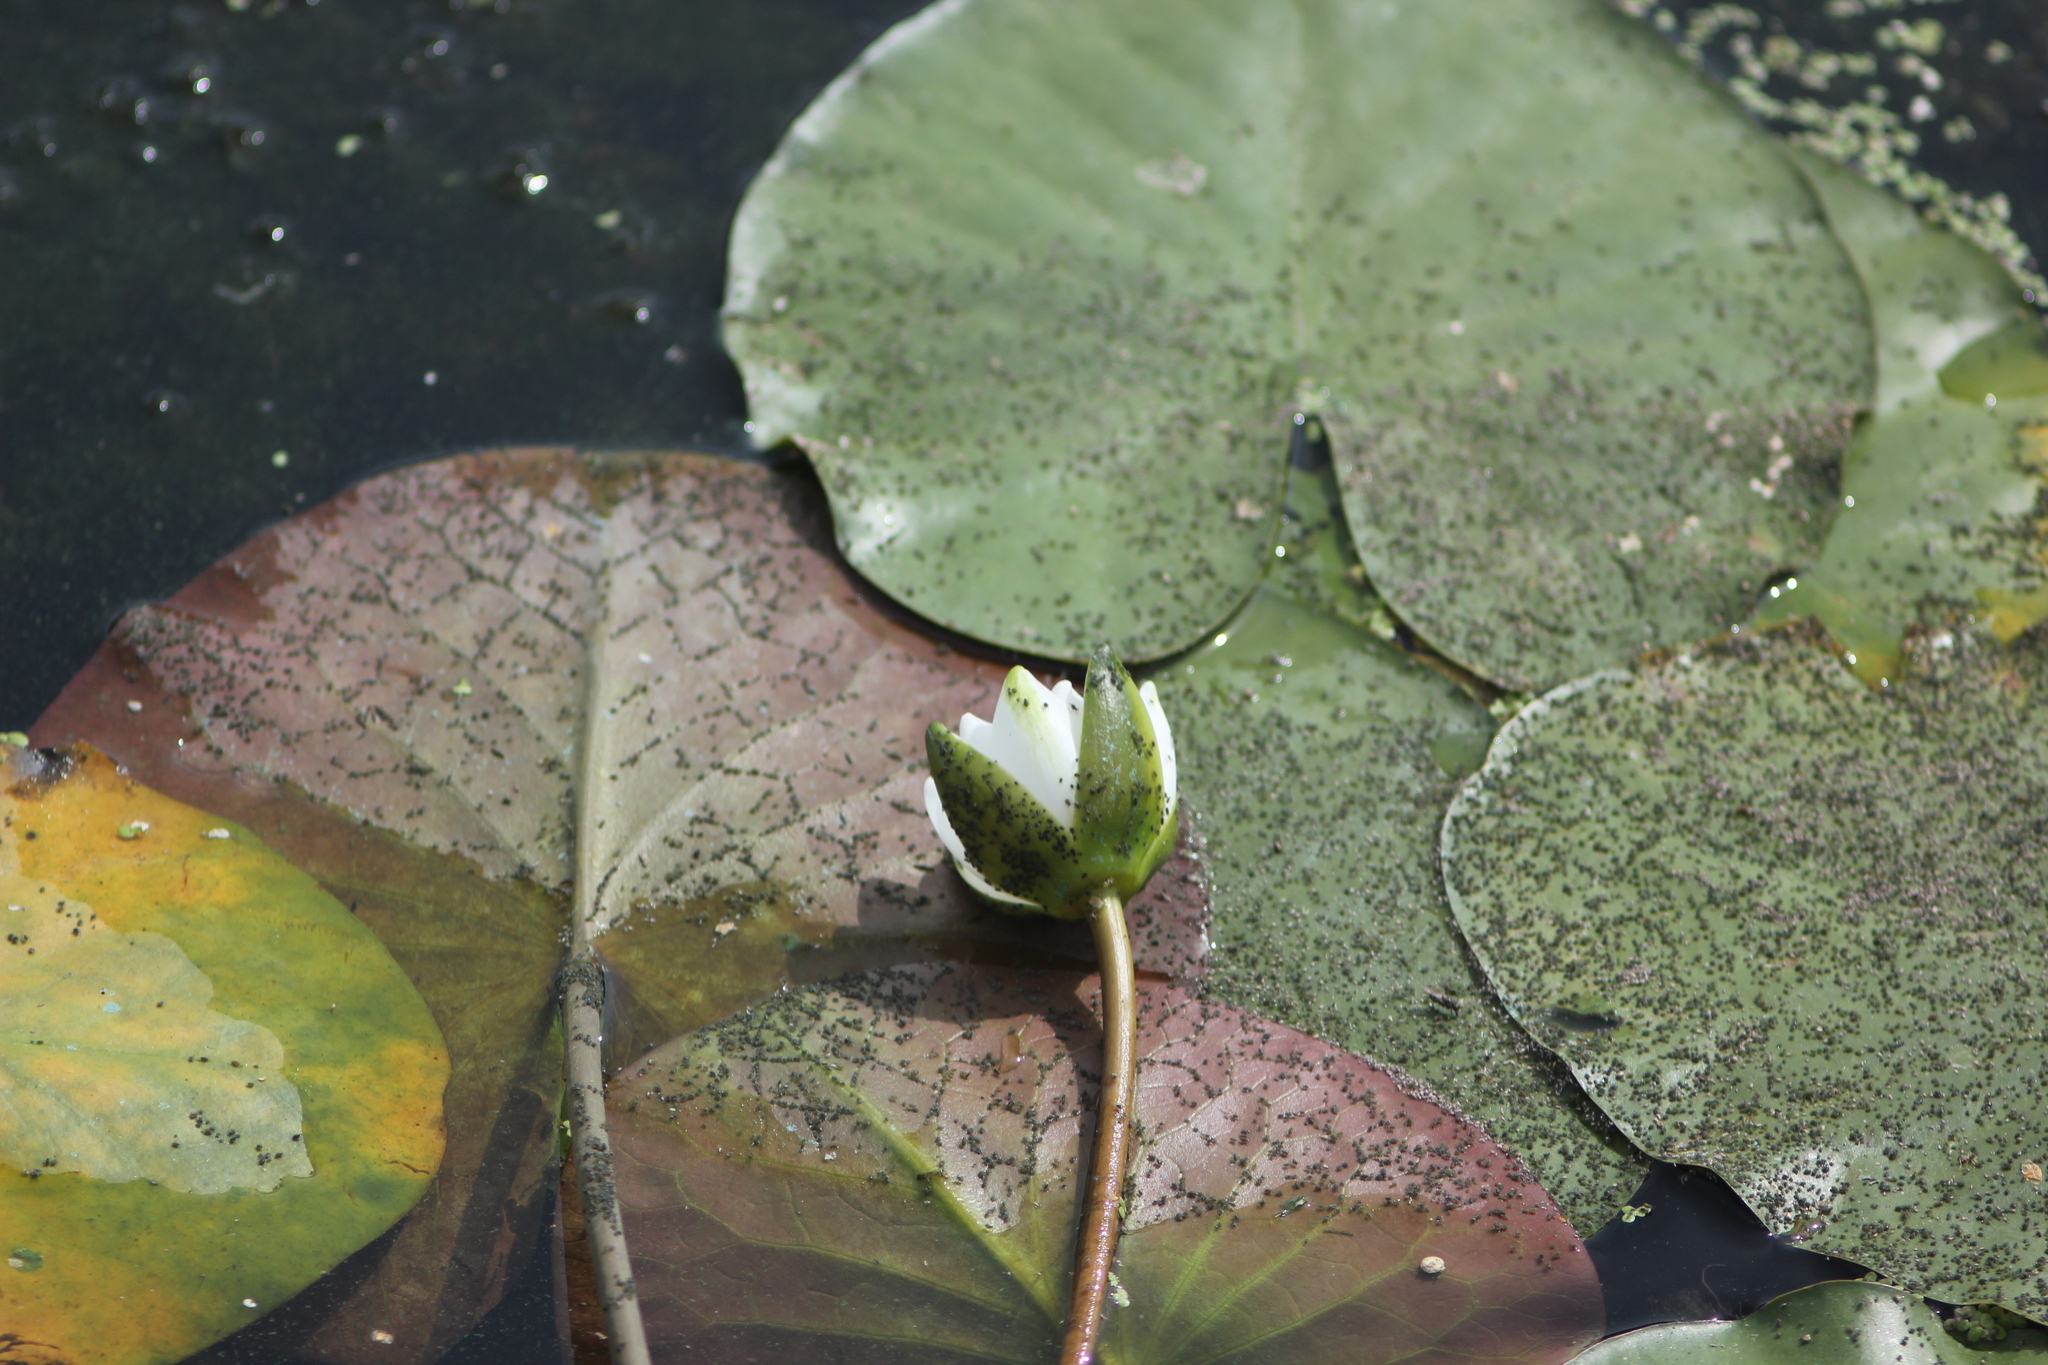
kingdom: Plantae
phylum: Tracheophyta
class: Magnoliopsida
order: Nymphaeales
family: Nymphaeaceae
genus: Nymphaea
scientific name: Nymphaea candida
